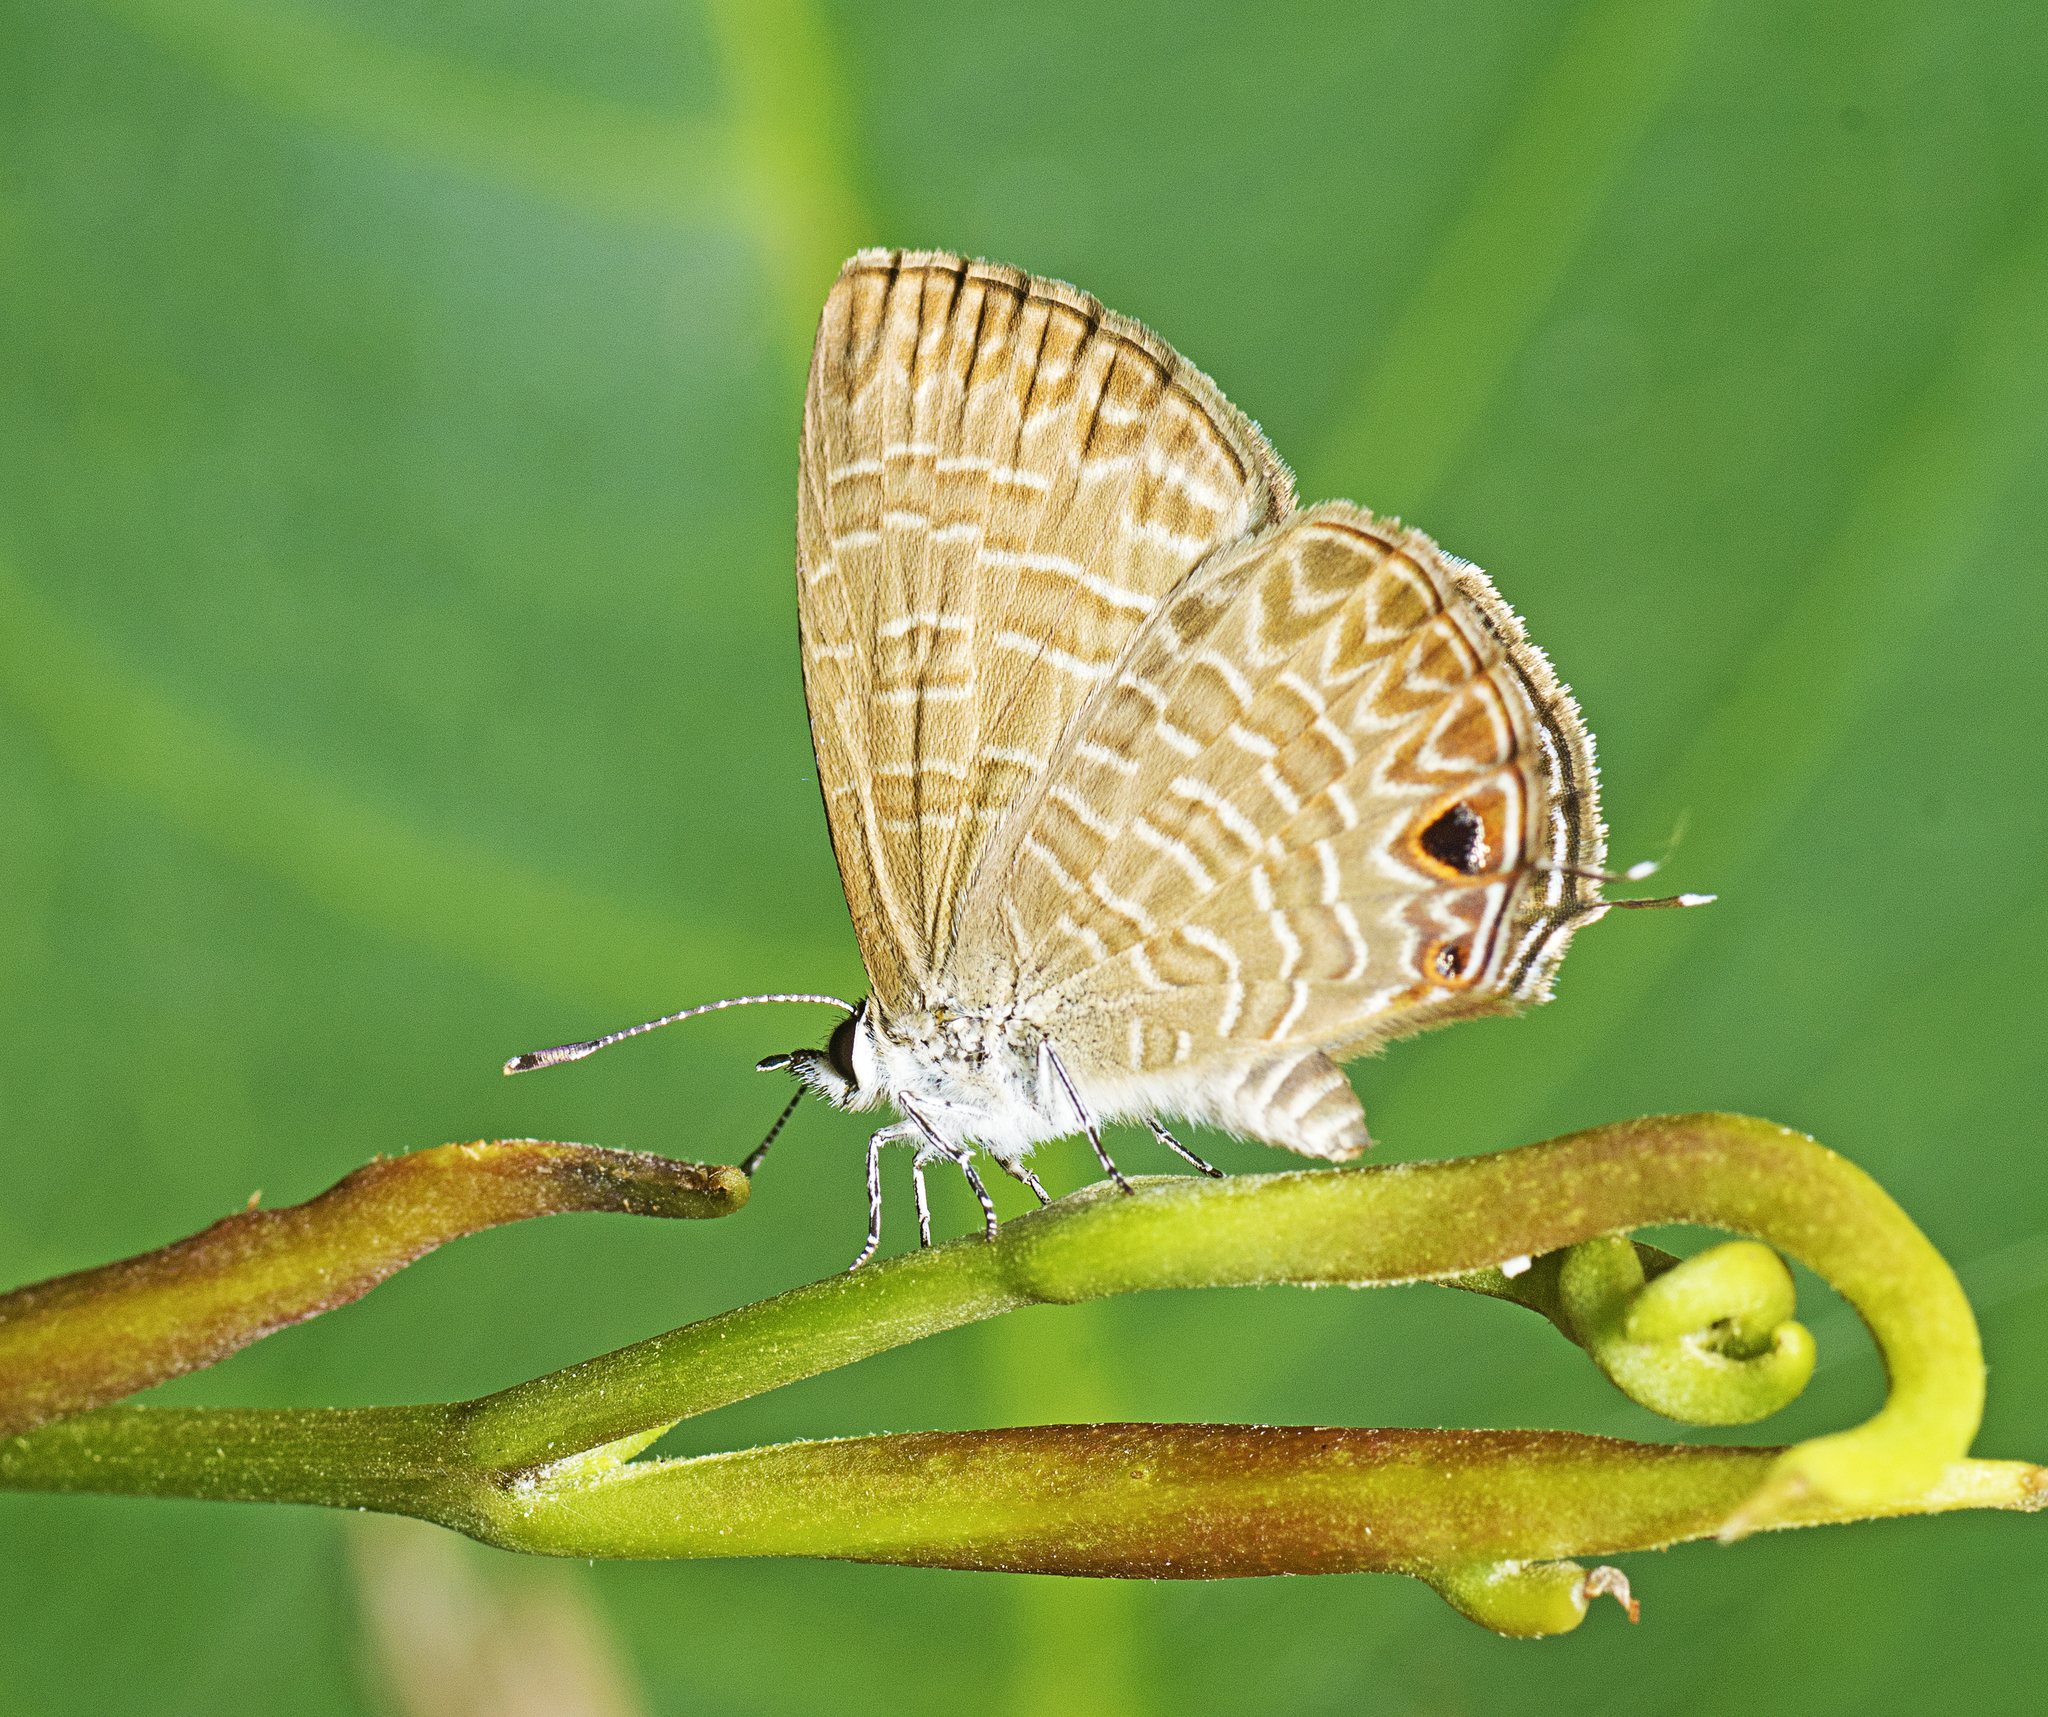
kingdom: Animalia
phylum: Arthropoda
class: Insecta
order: Lepidoptera
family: Lycaenidae
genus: Nacaduba
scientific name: Nacaduba berenice
